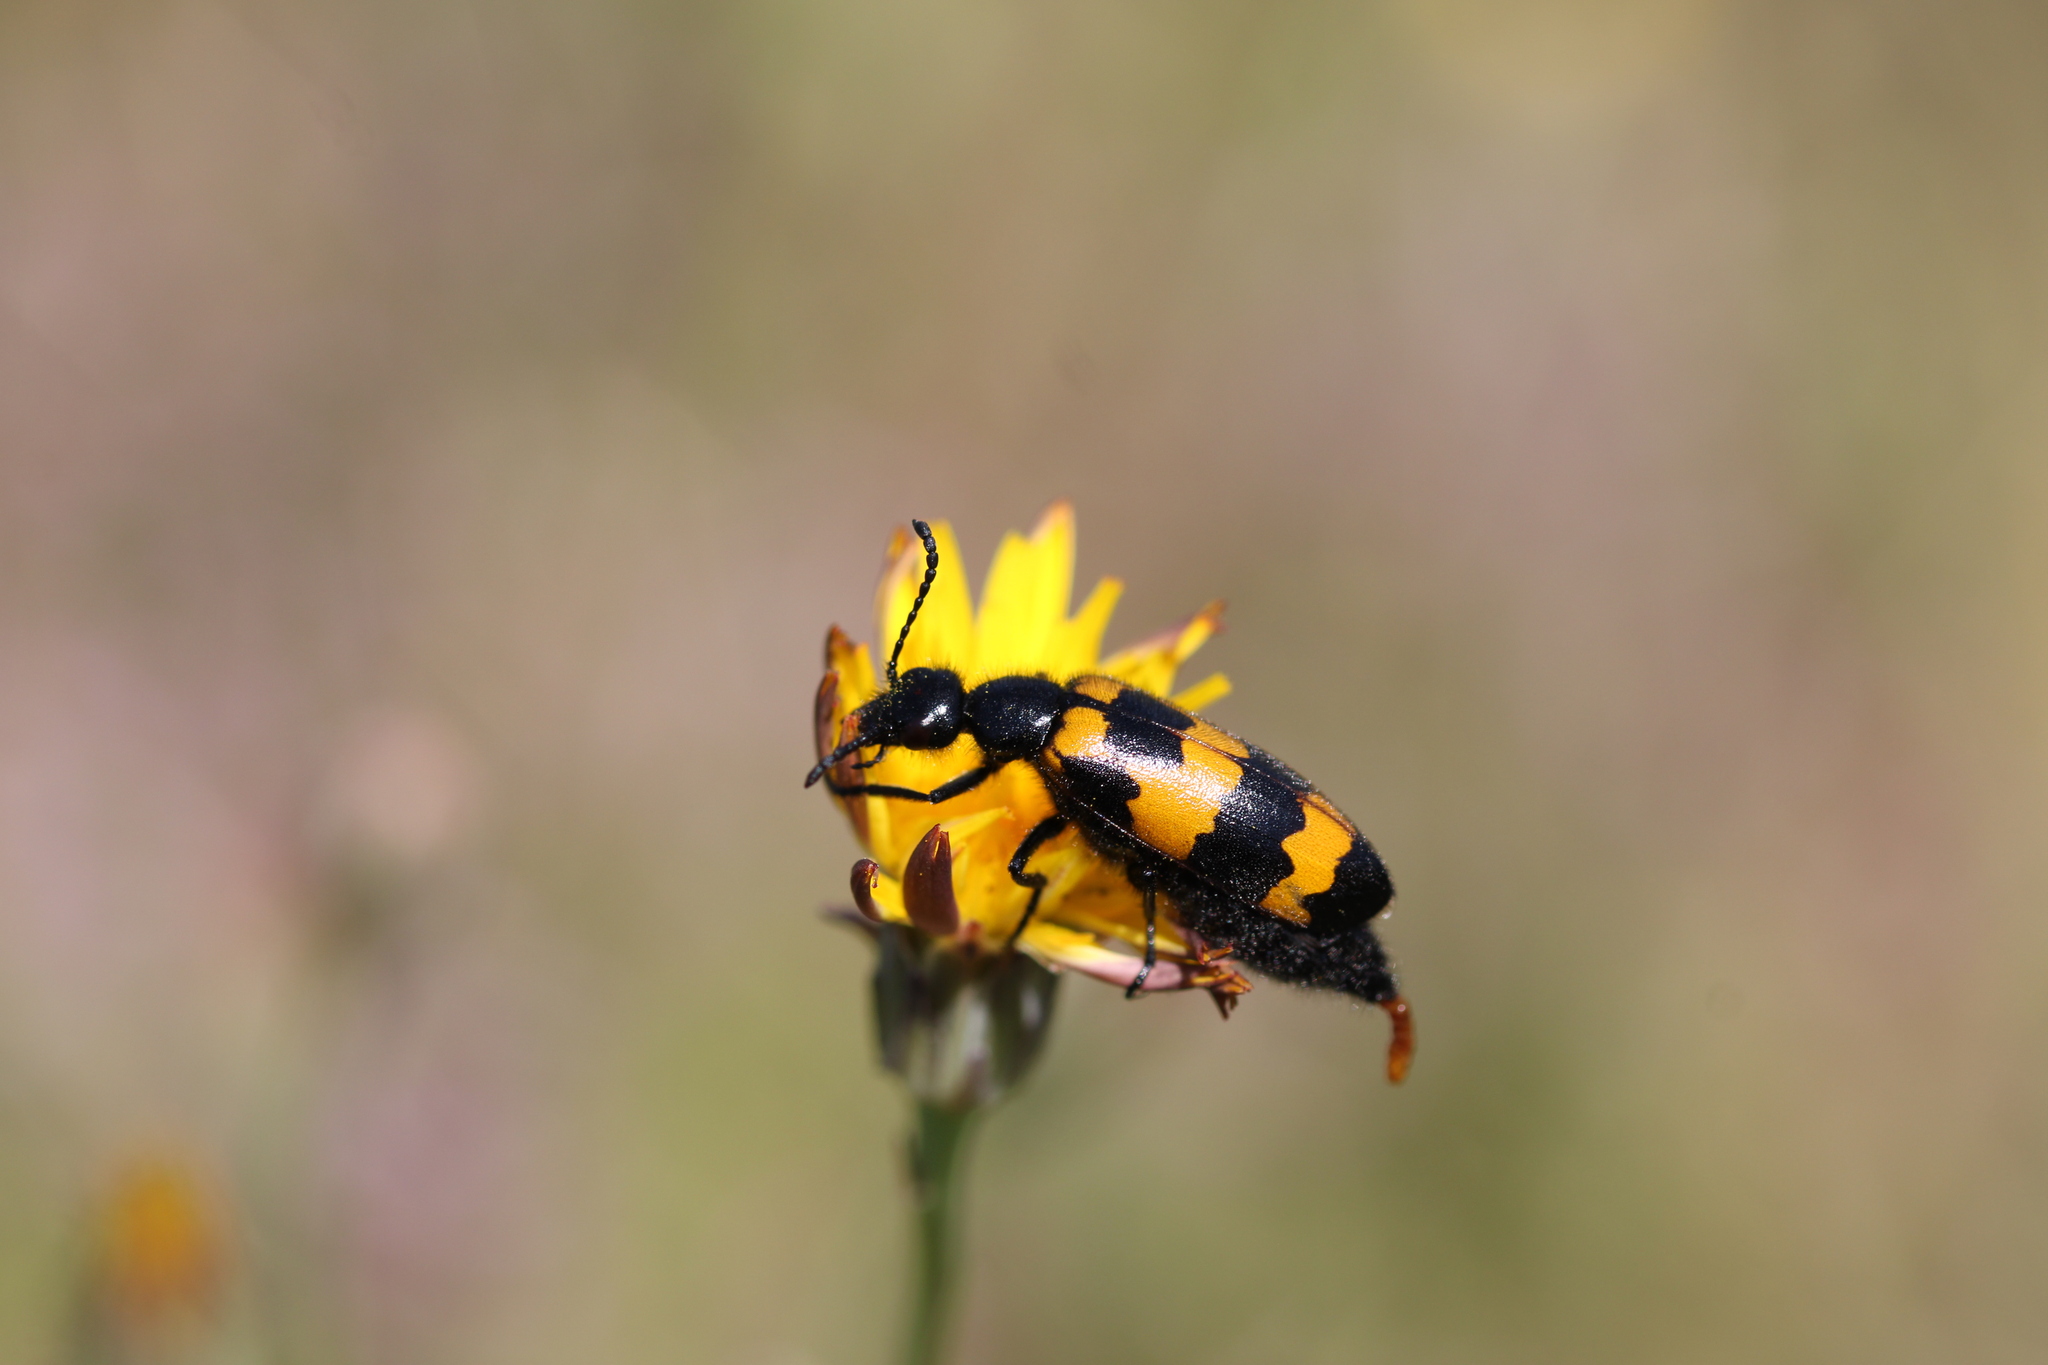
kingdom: Animalia
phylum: Arthropoda
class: Insecta
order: Coleoptera
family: Meloidae
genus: Mylabris
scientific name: Mylabris variabilis
